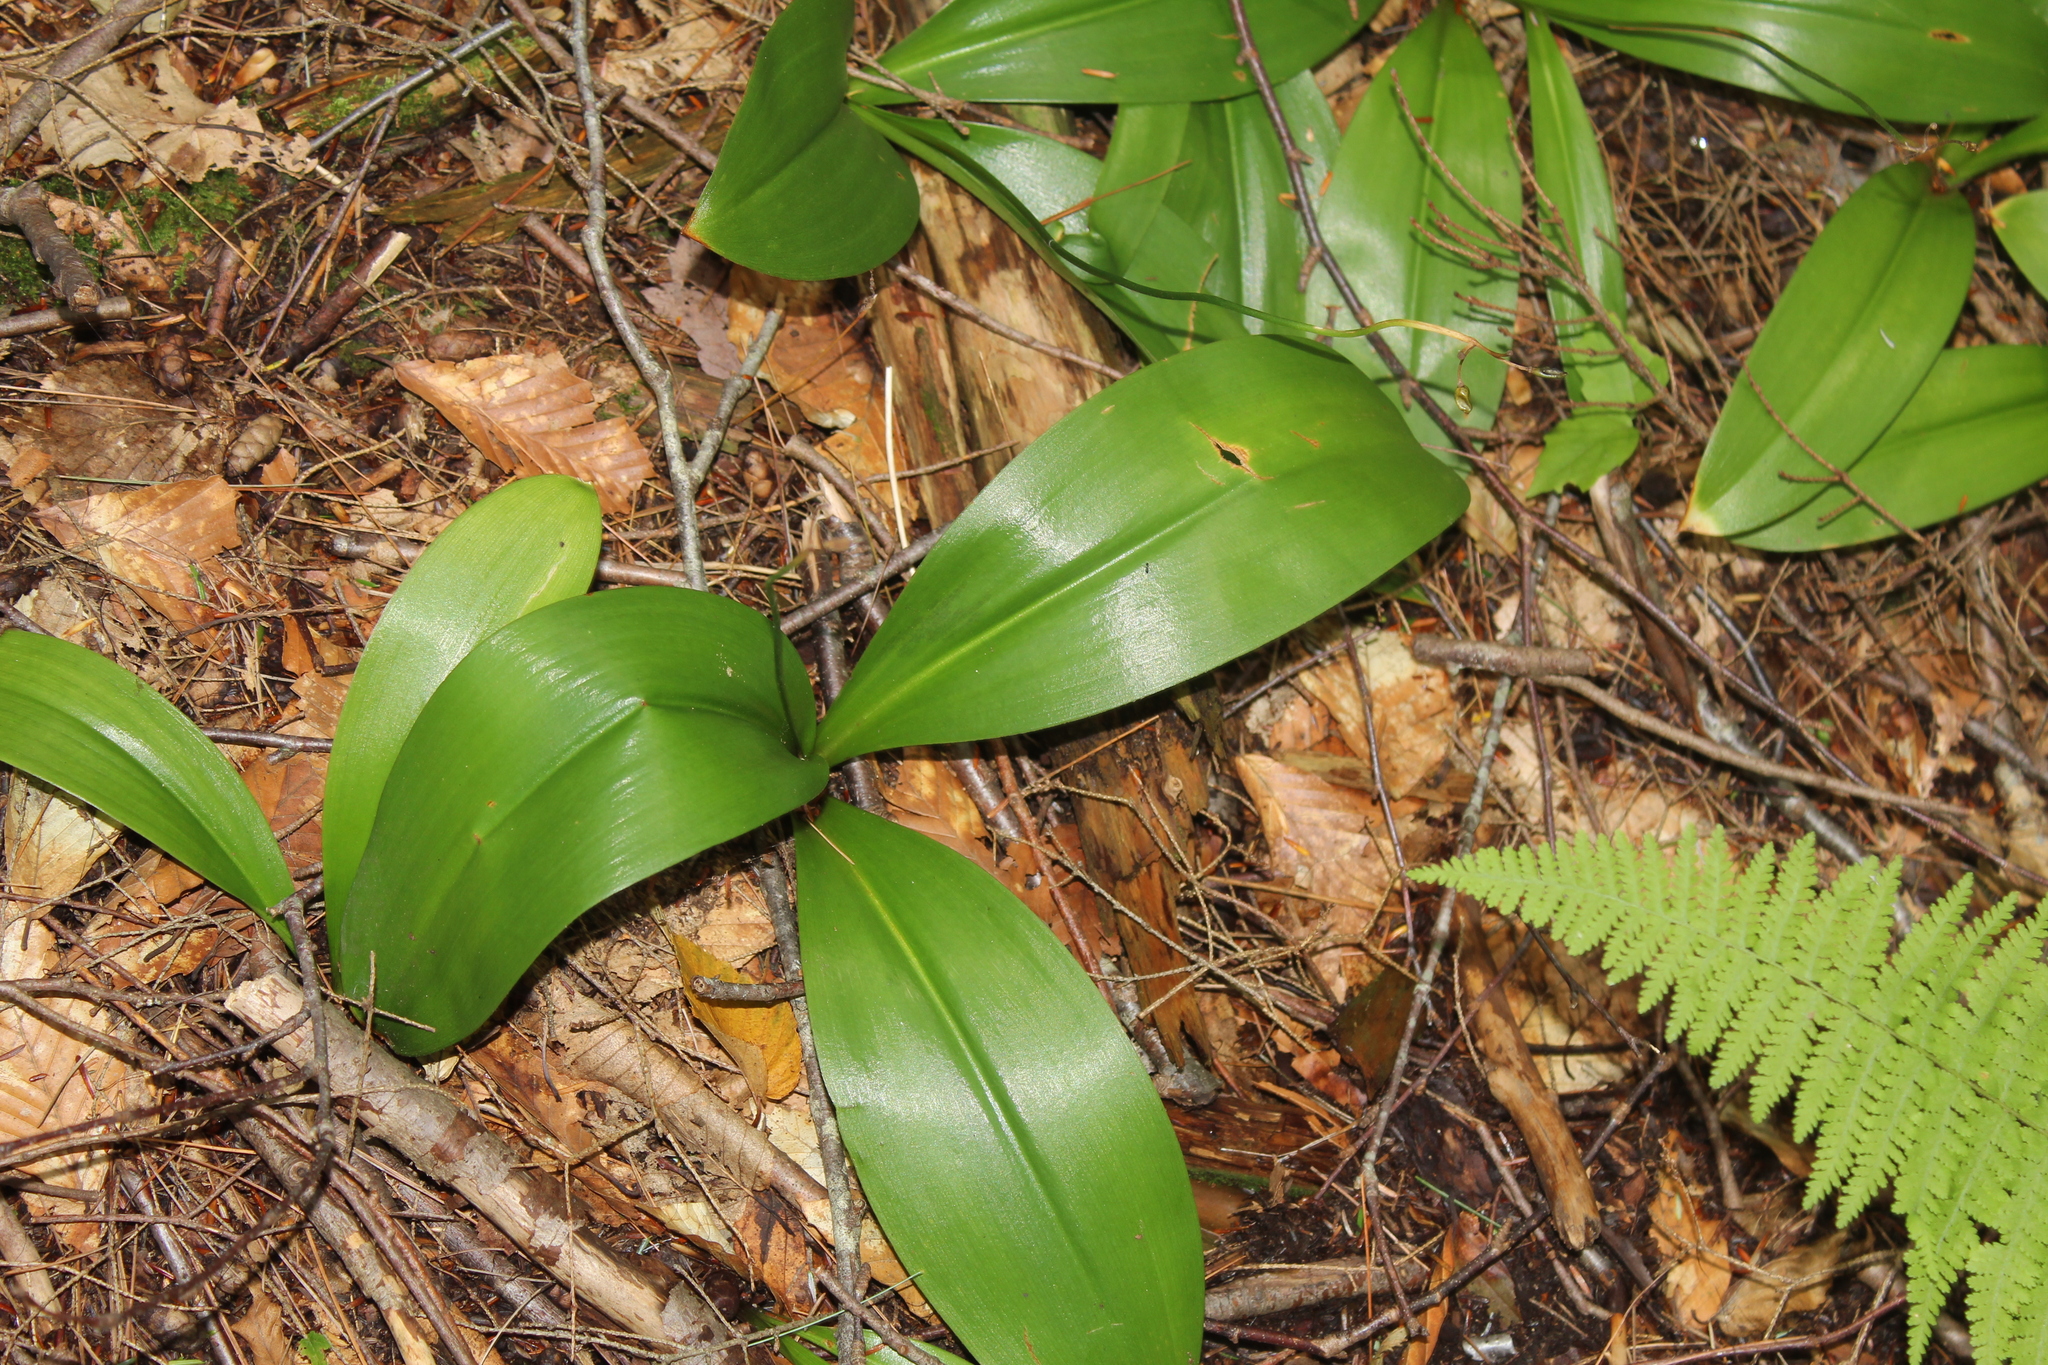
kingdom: Plantae
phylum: Tracheophyta
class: Liliopsida
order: Liliales
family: Liliaceae
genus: Clintonia
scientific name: Clintonia borealis
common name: Yellow clintonia
